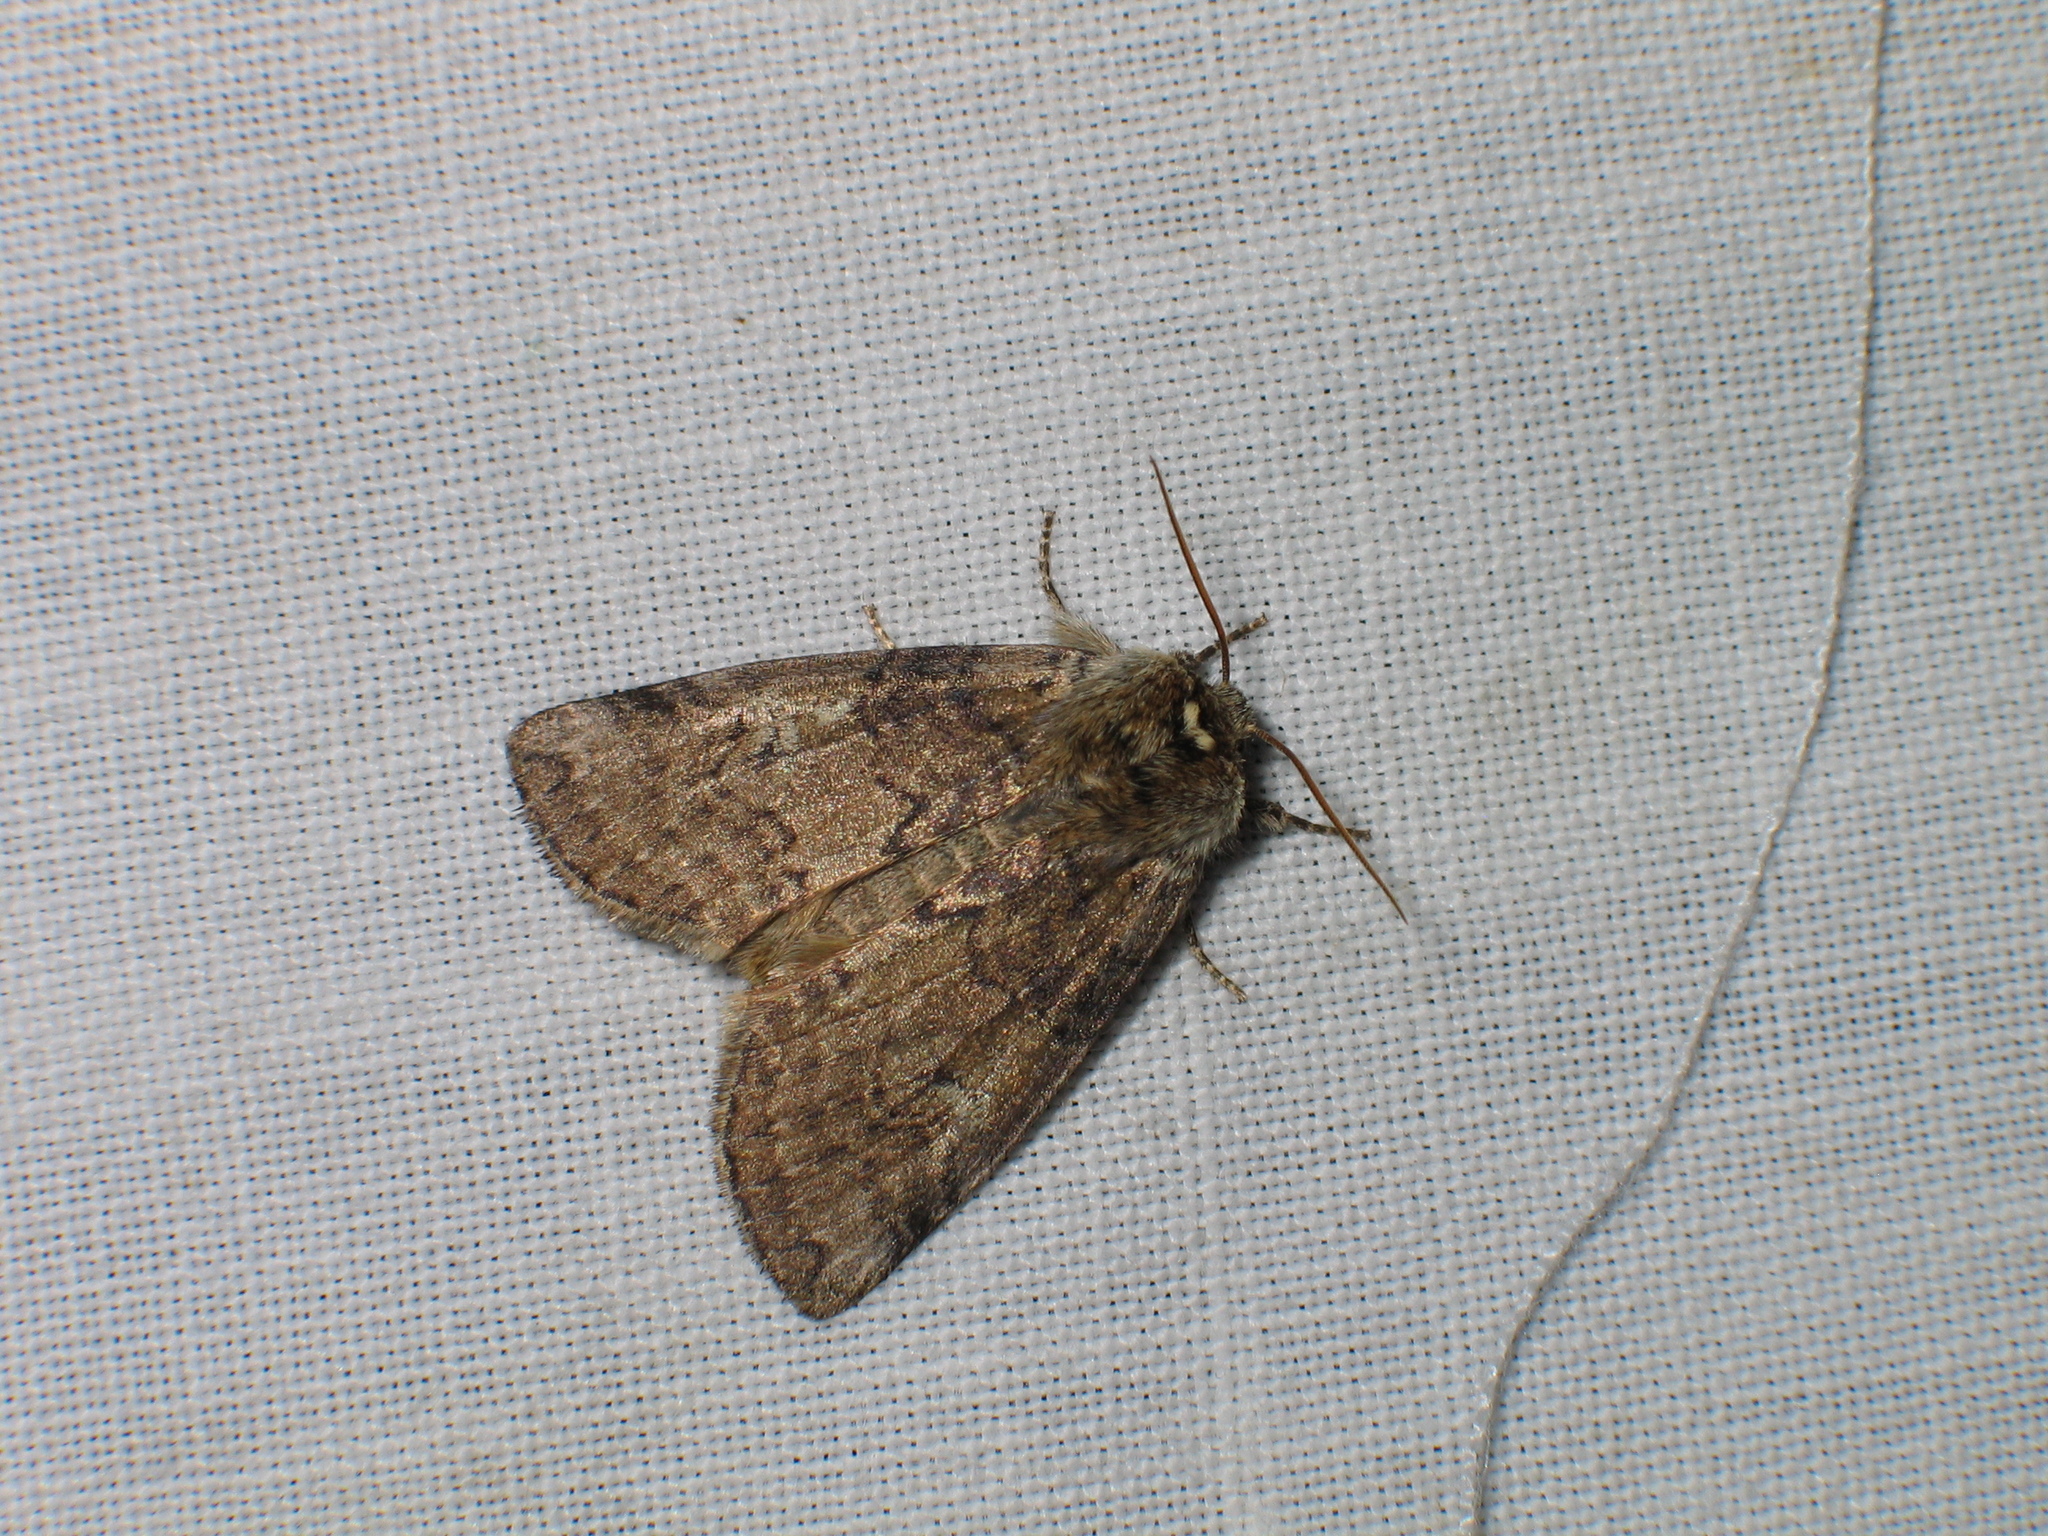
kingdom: Animalia
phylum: Arthropoda
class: Insecta
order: Lepidoptera
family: Drepanidae
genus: Tethea
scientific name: Tethea or
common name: Poplar lutestring
